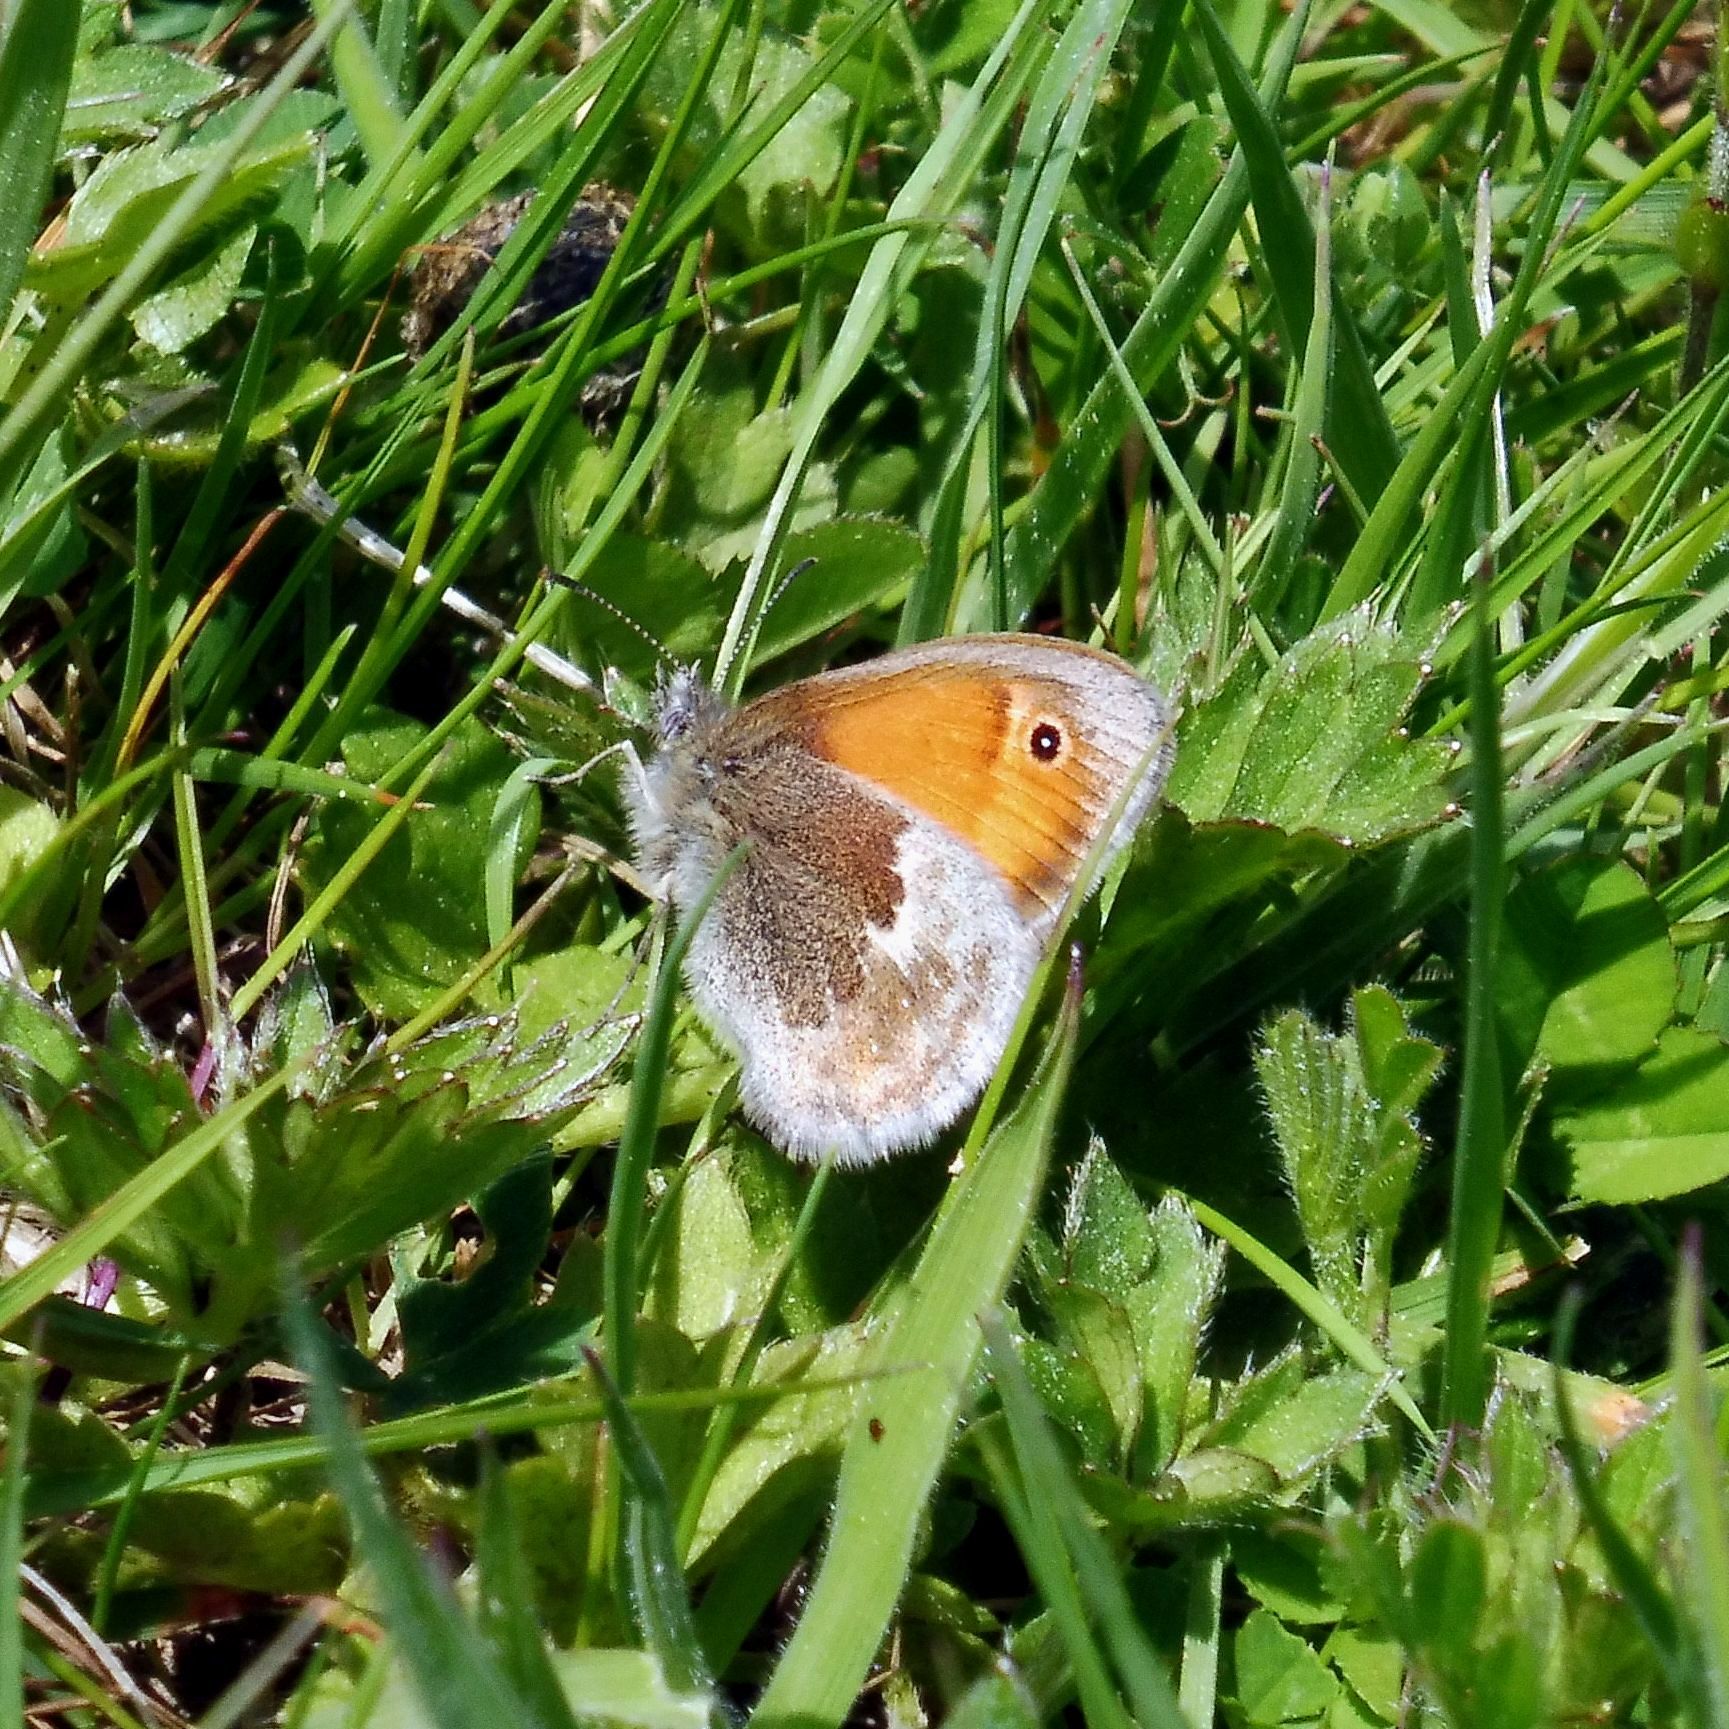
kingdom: Animalia
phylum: Arthropoda
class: Insecta
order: Lepidoptera
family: Nymphalidae
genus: Coenonympha
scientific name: Coenonympha pamphilus
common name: Small heath
